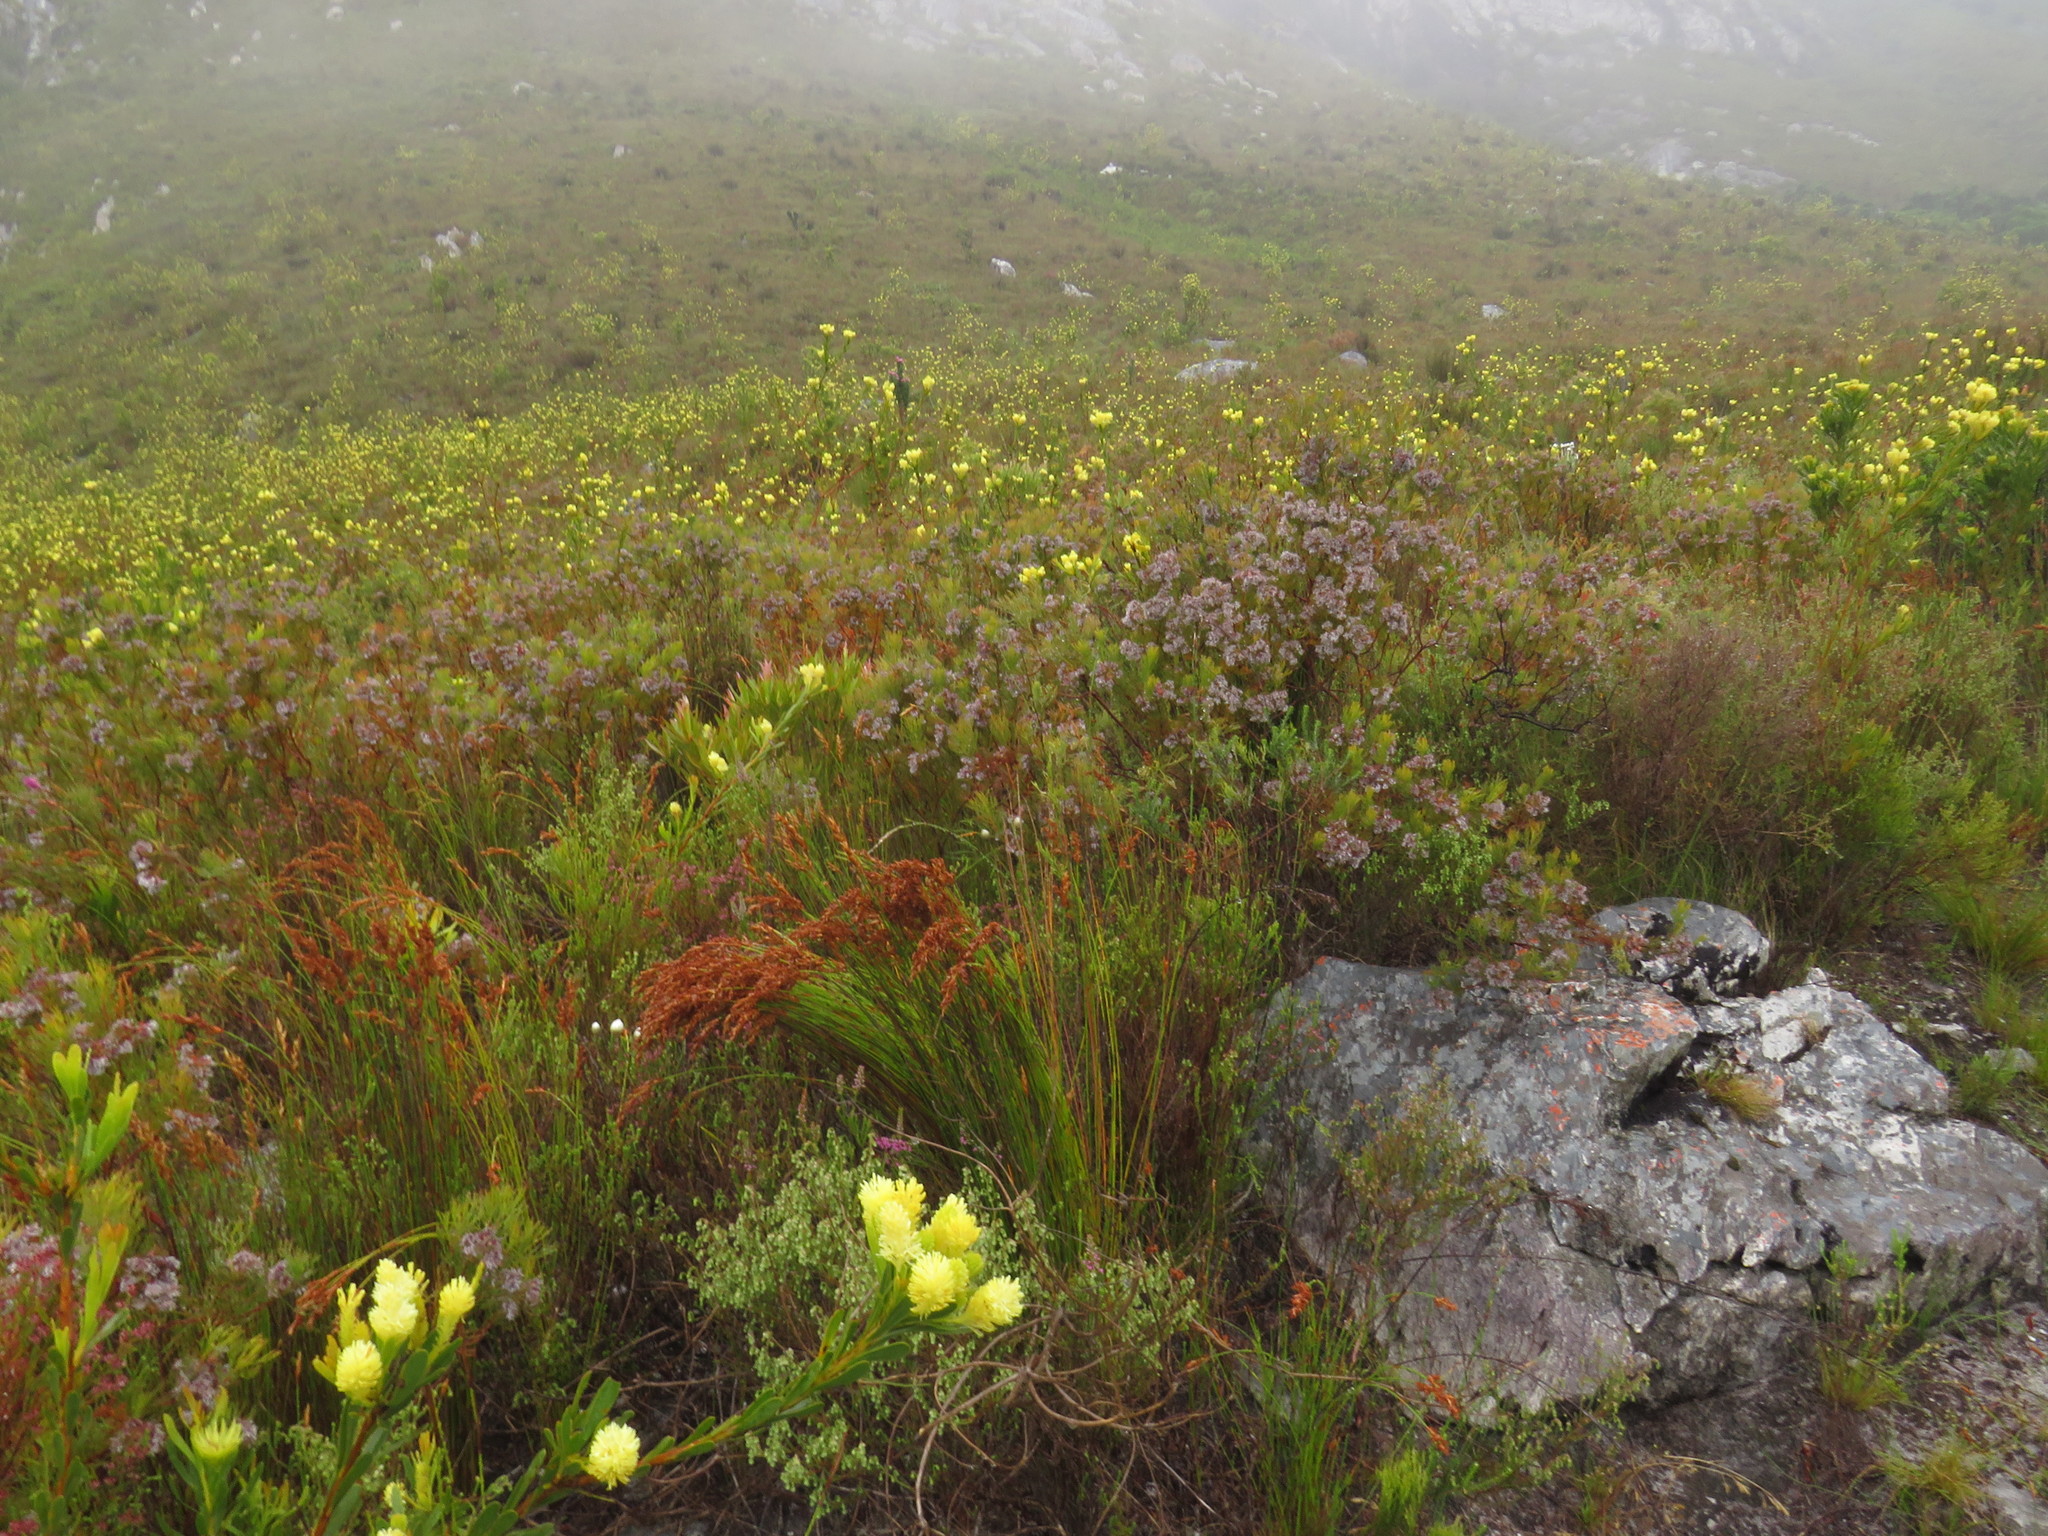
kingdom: Plantae
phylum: Tracheophyta
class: Magnoliopsida
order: Proteales
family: Proteaceae
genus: Serruria
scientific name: Serruria ascendens
